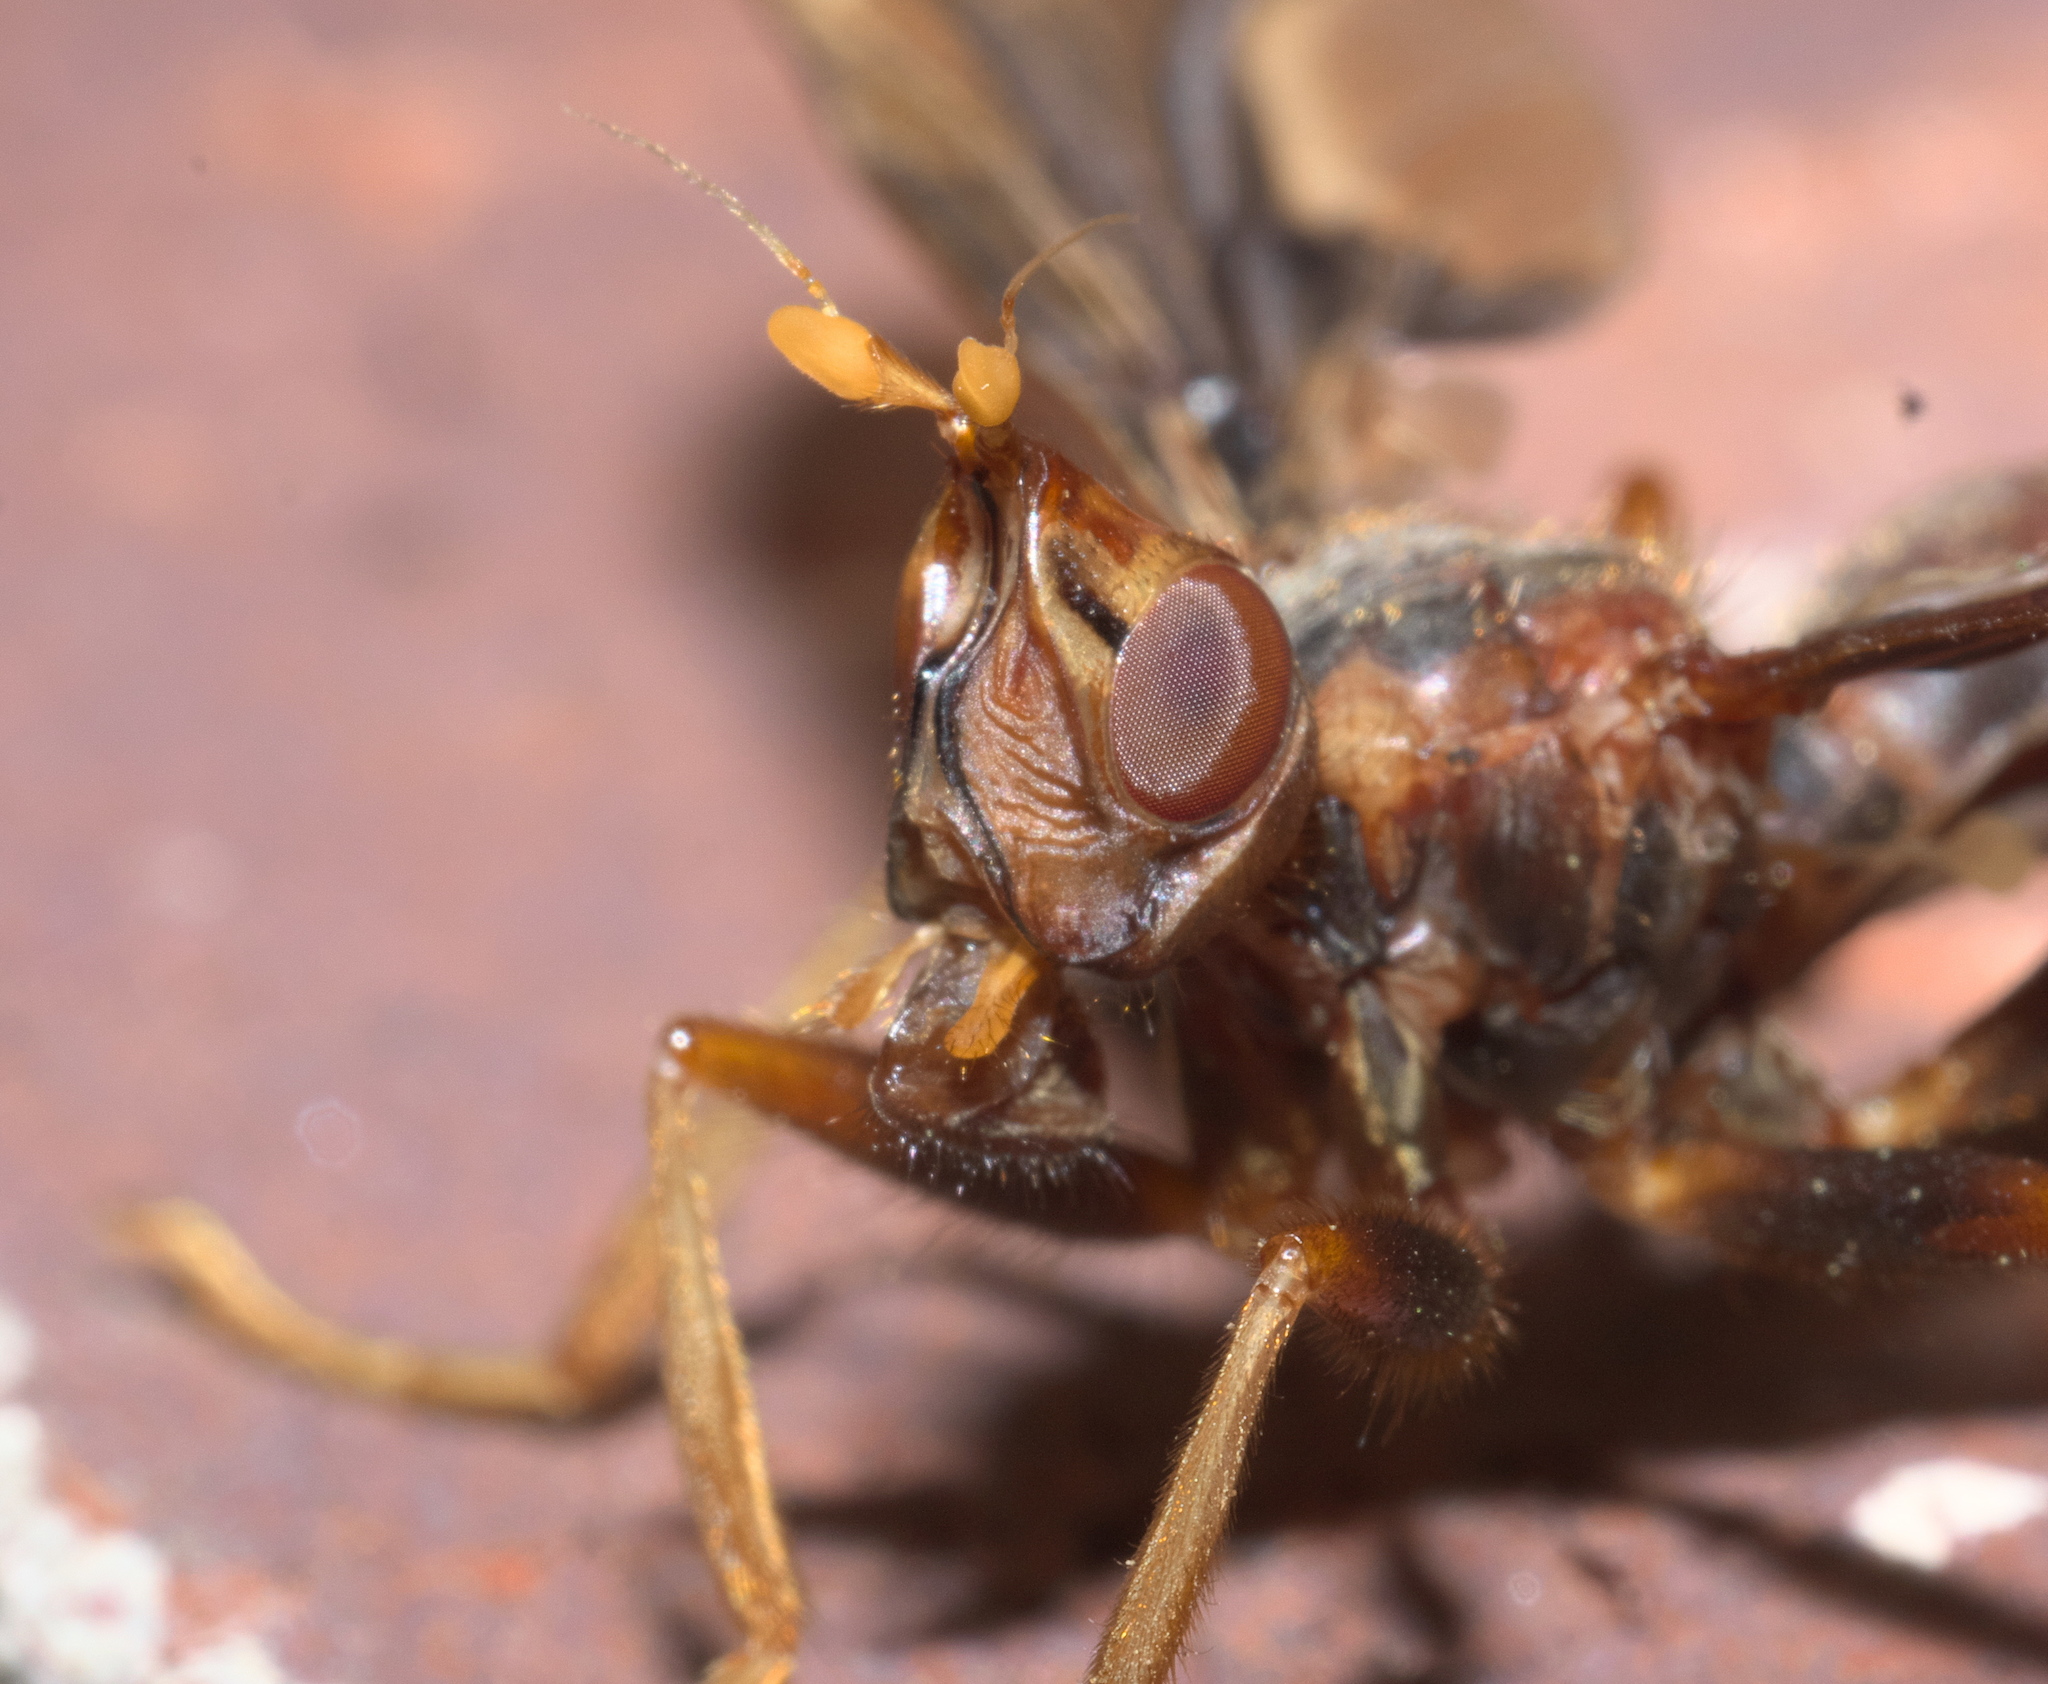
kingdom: Animalia
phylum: Arthropoda
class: Insecta
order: Diptera
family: Pyrgotidae
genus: Pyrgota
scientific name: Pyrgota undata
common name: Waved light fly
